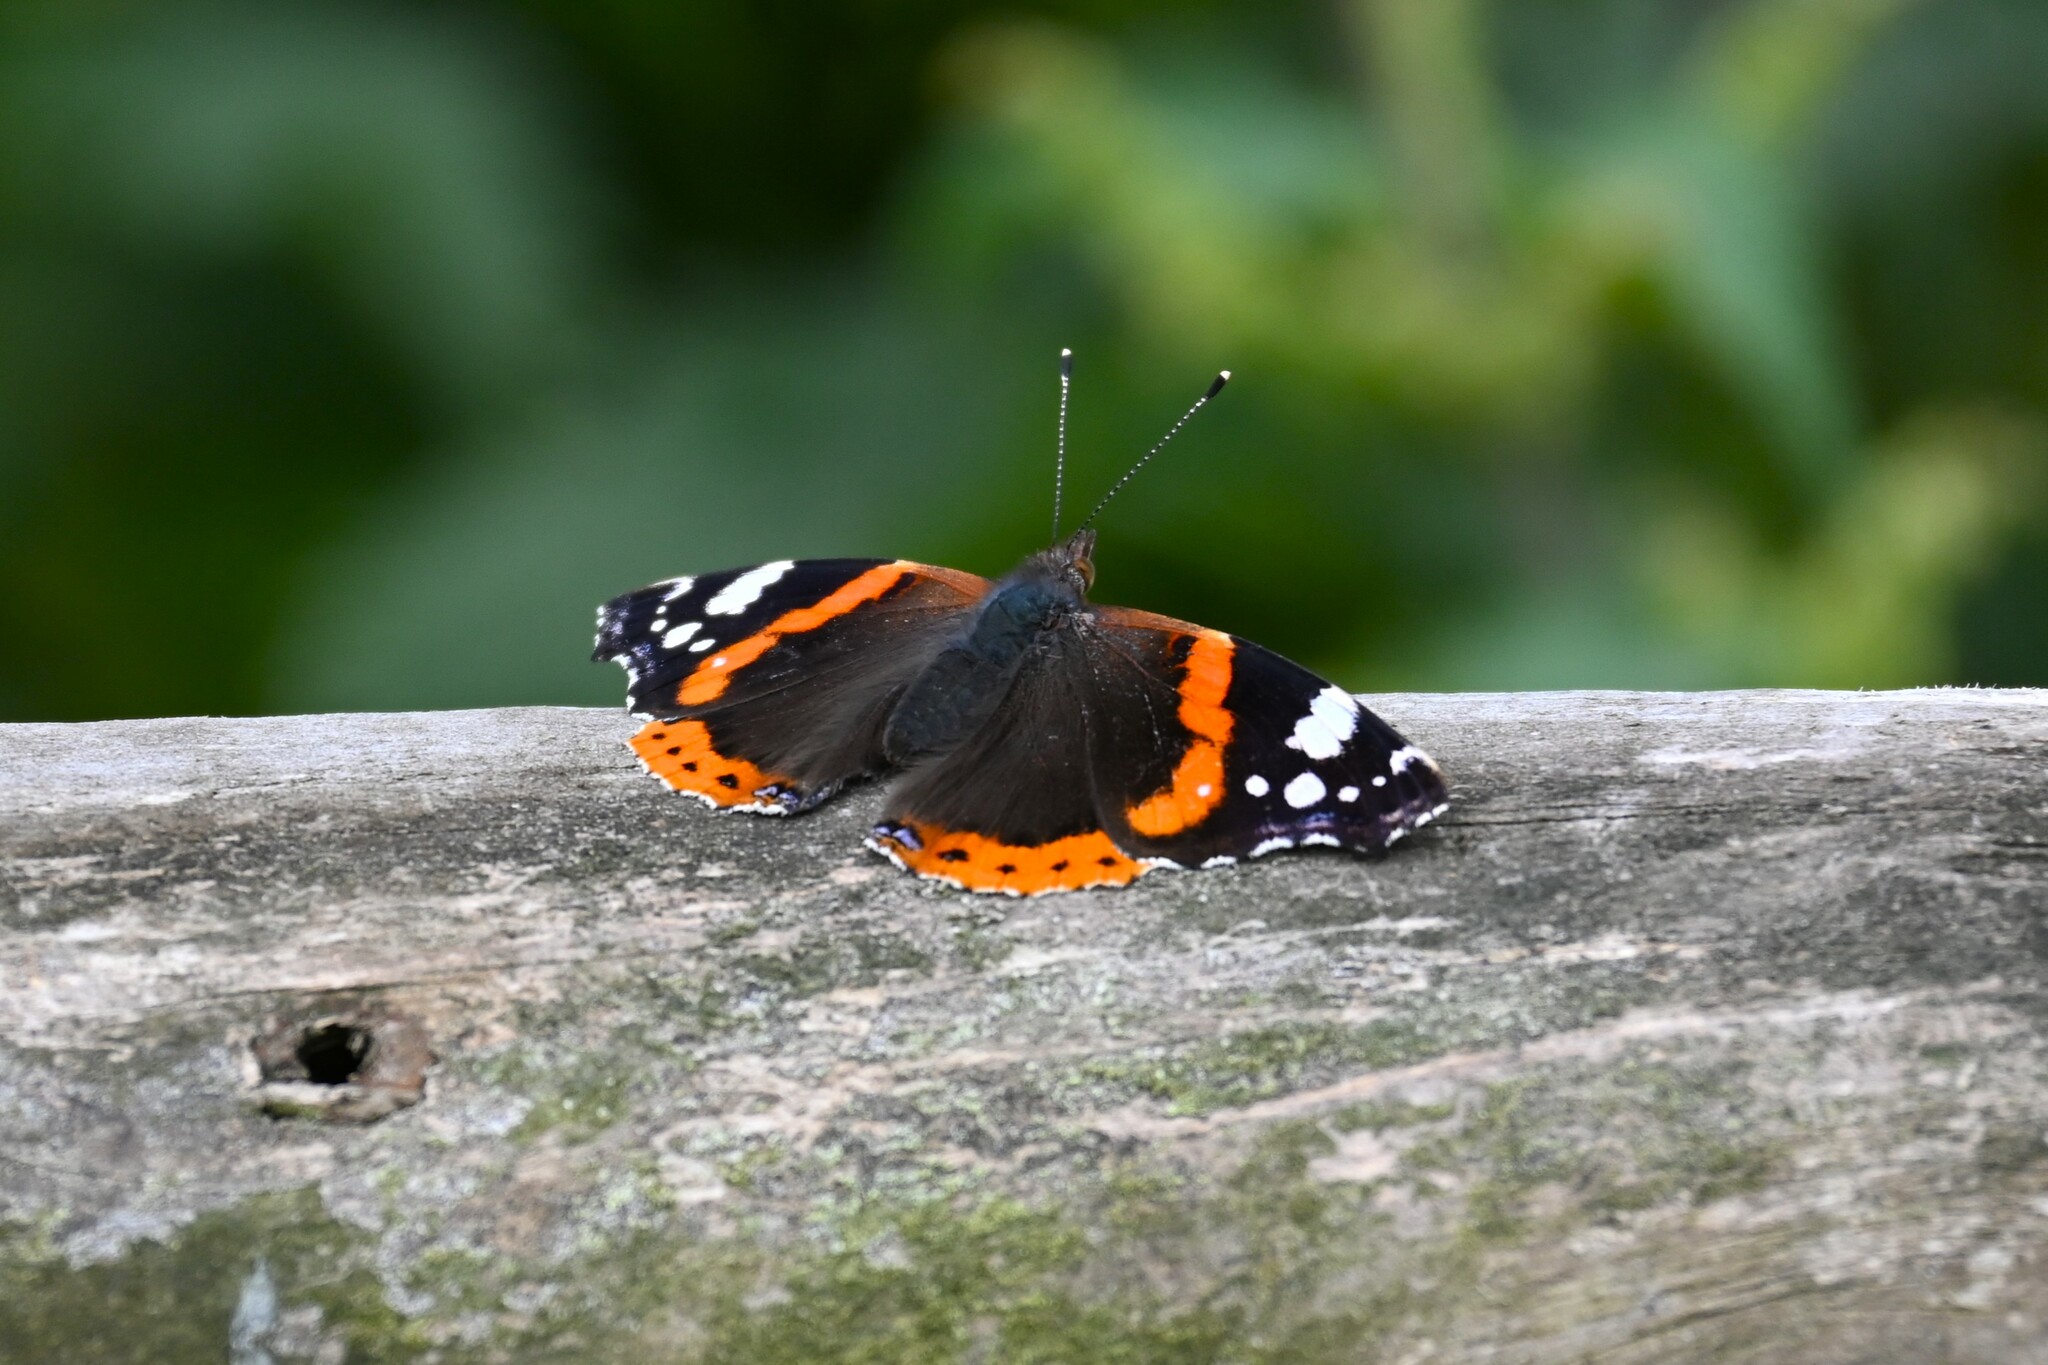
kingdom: Animalia
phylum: Arthropoda
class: Insecta
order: Lepidoptera
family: Nymphalidae
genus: Vanessa
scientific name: Vanessa atalanta
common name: Red admiral
